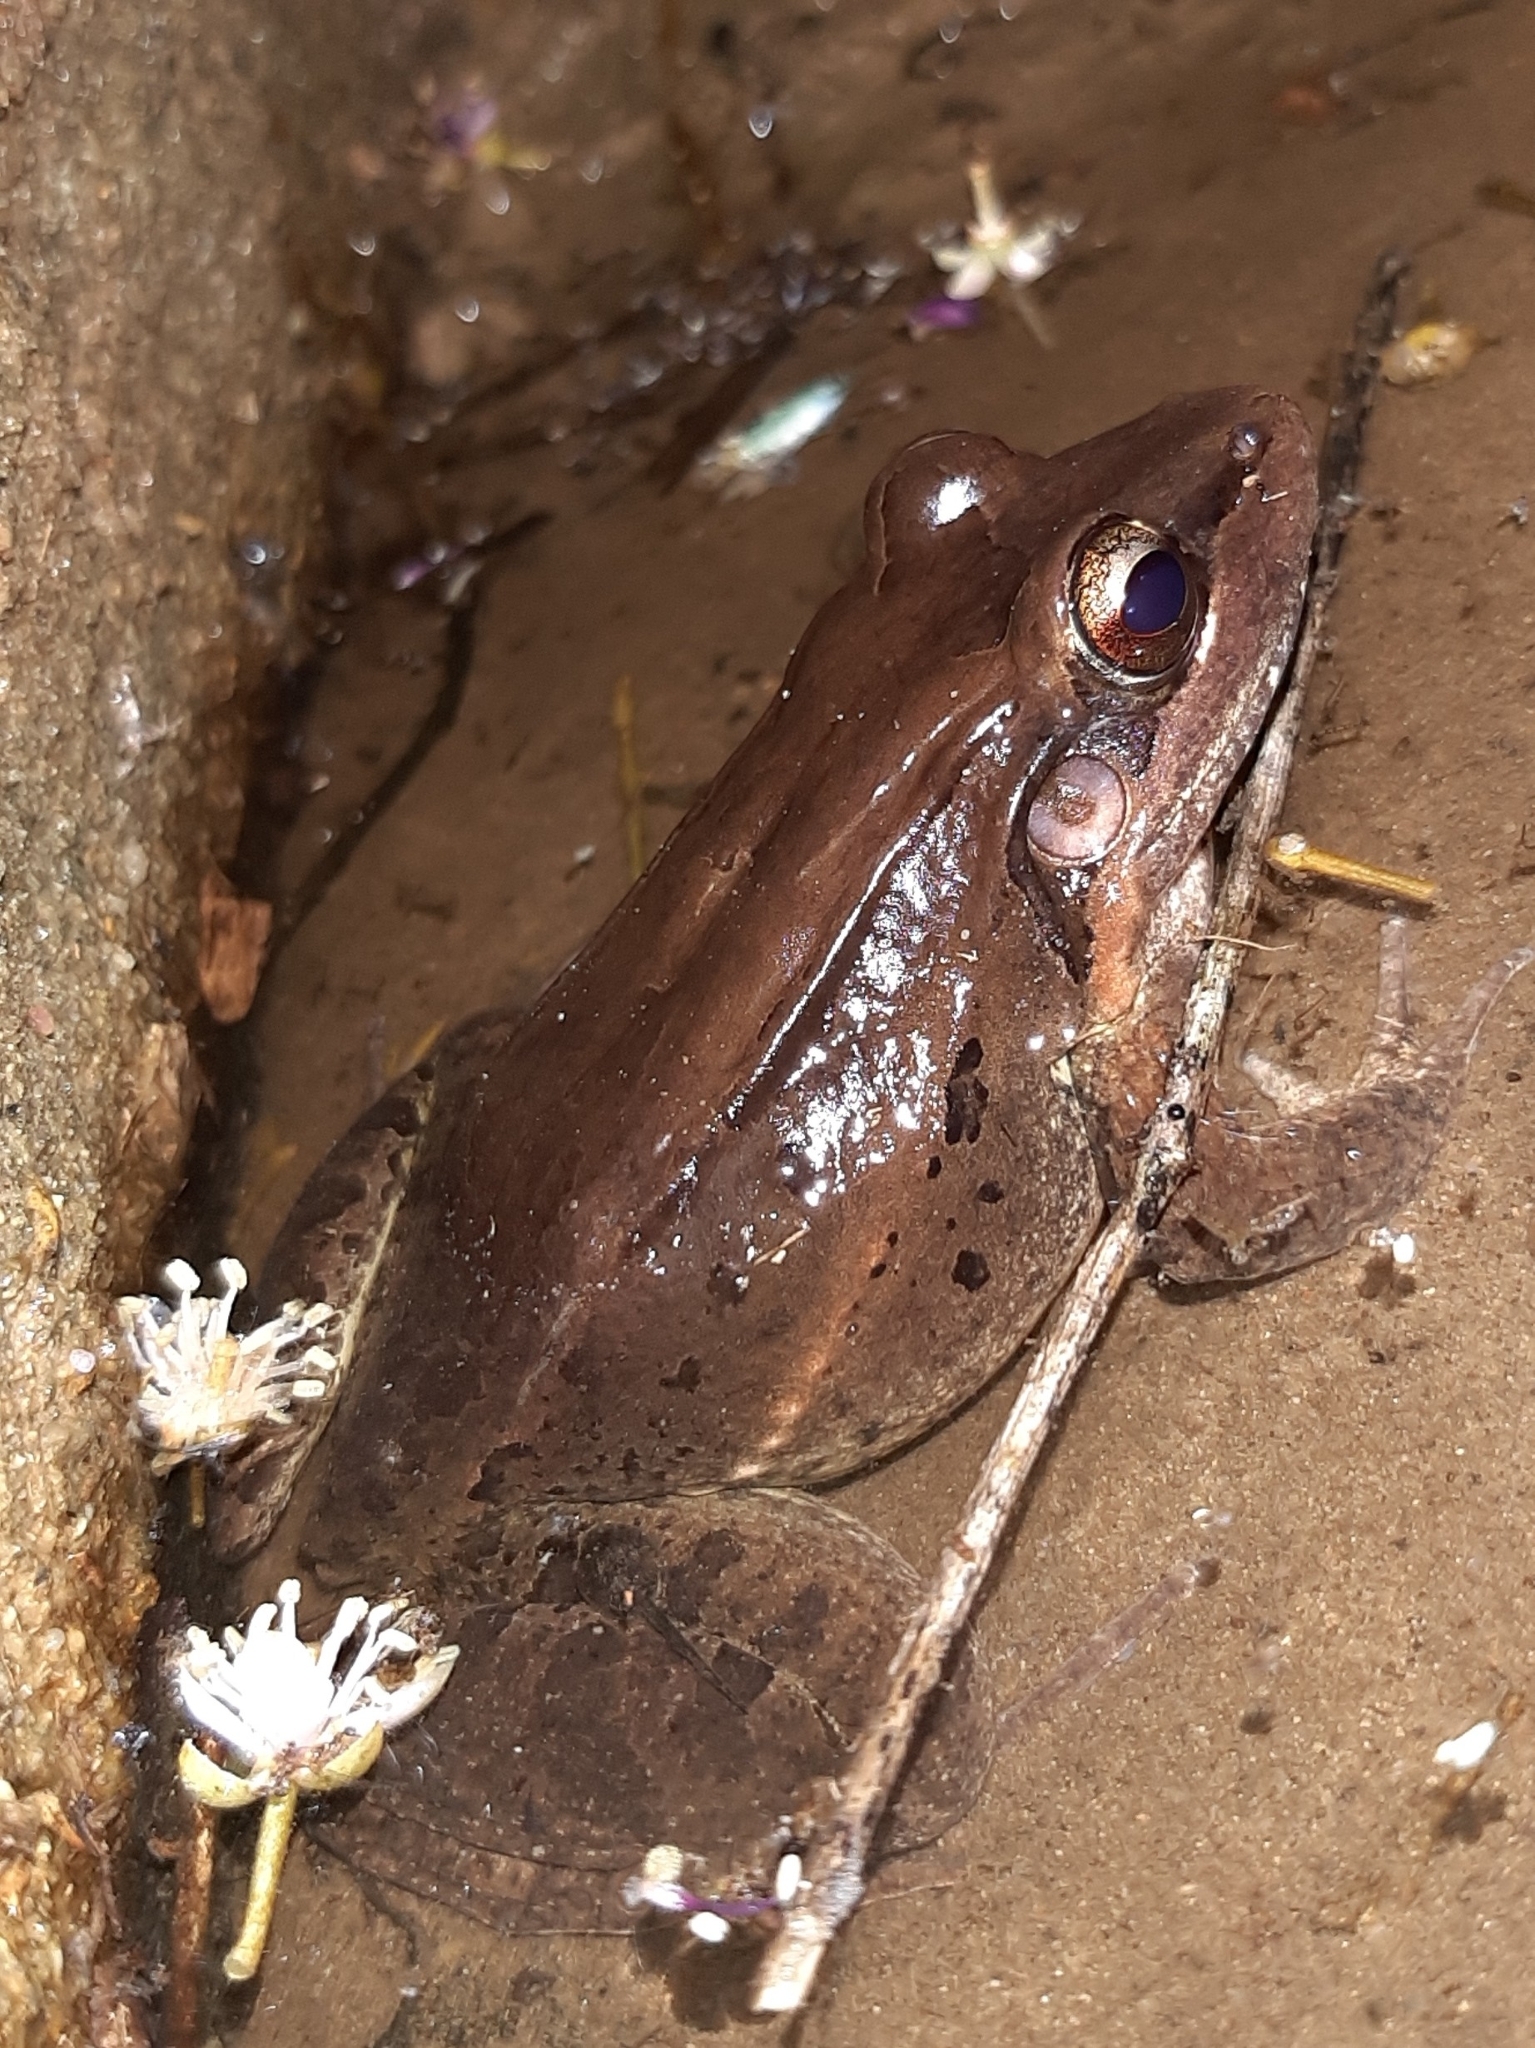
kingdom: Animalia
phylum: Chordata
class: Amphibia
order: Anura
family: Leptodactylidae
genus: Leptodactylus
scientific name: Leptodactylus insularum
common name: San miguel island frog
